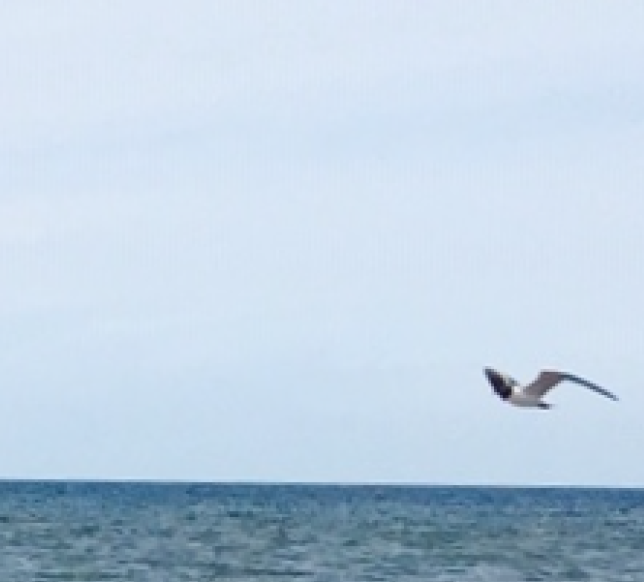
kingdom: Animalia
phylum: Chordata
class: Aves
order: Charadriiformes
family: Laridae
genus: Leucophaeus
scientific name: Leucophaeus atricilla
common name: Laughing gull
